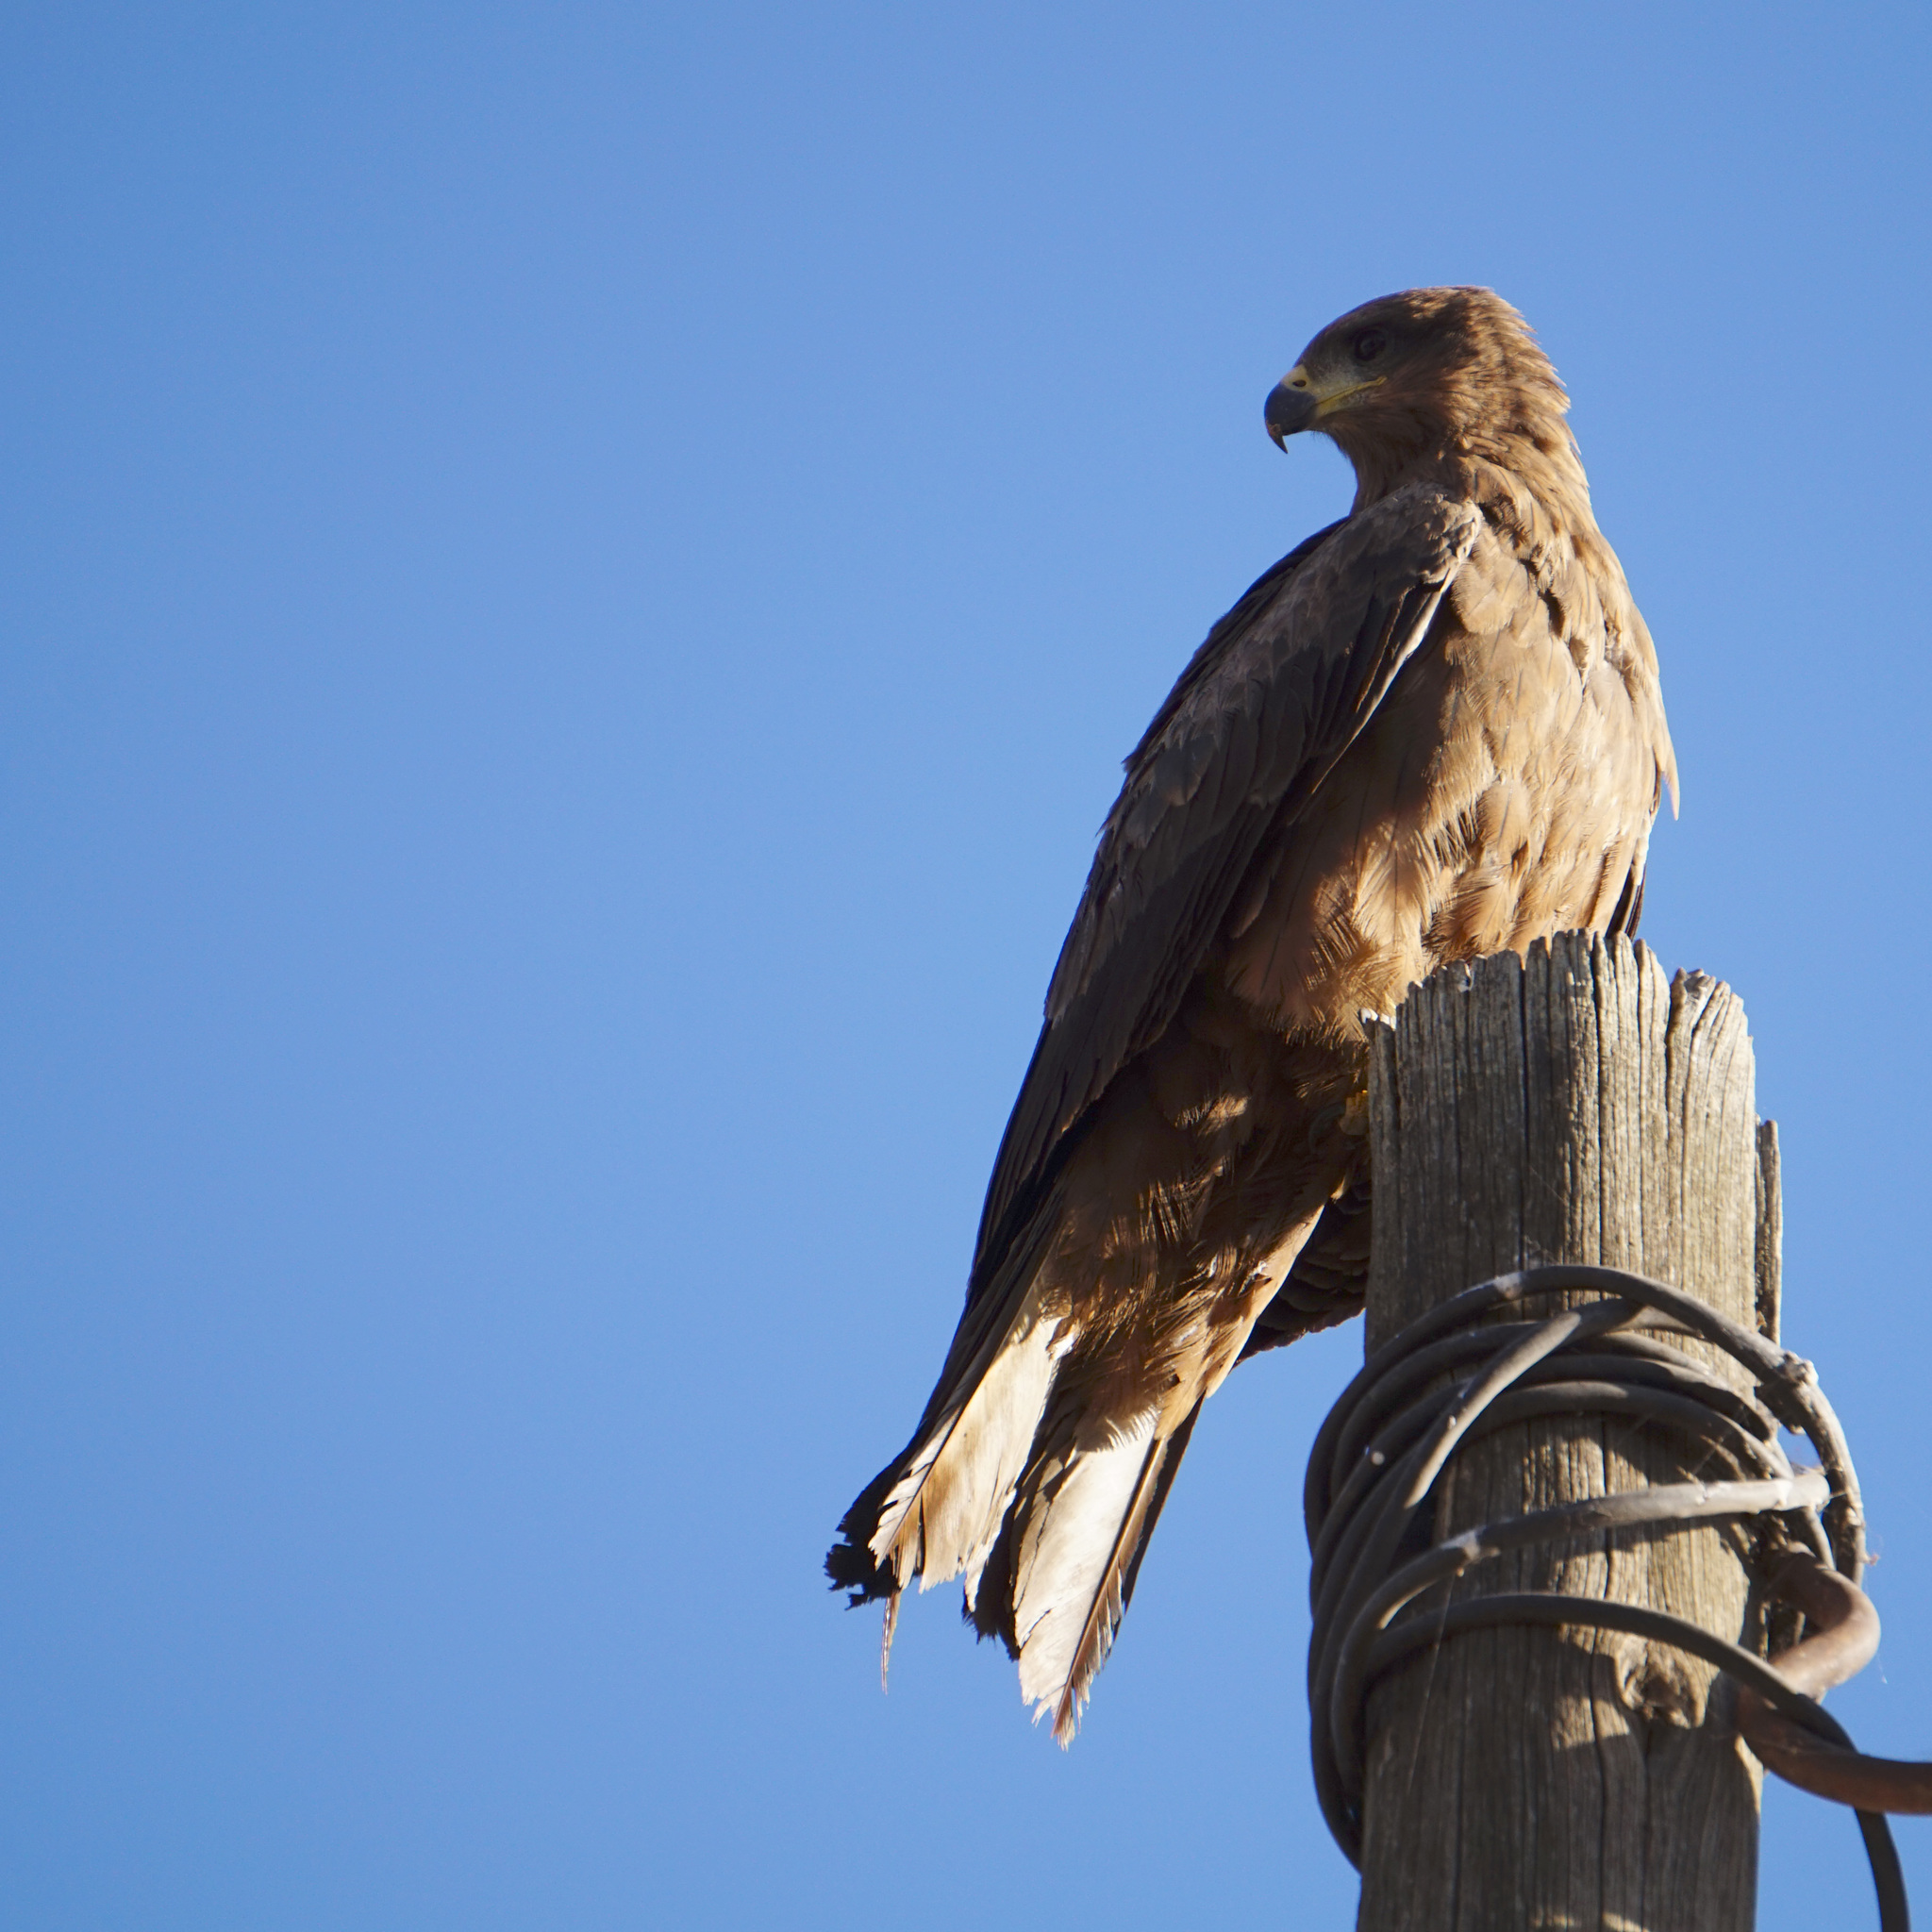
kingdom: Animalia
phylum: Chordata
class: Aves
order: Accipitriformes
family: Accipitridae
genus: Milvus
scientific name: Milvus migrans
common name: Black kite
